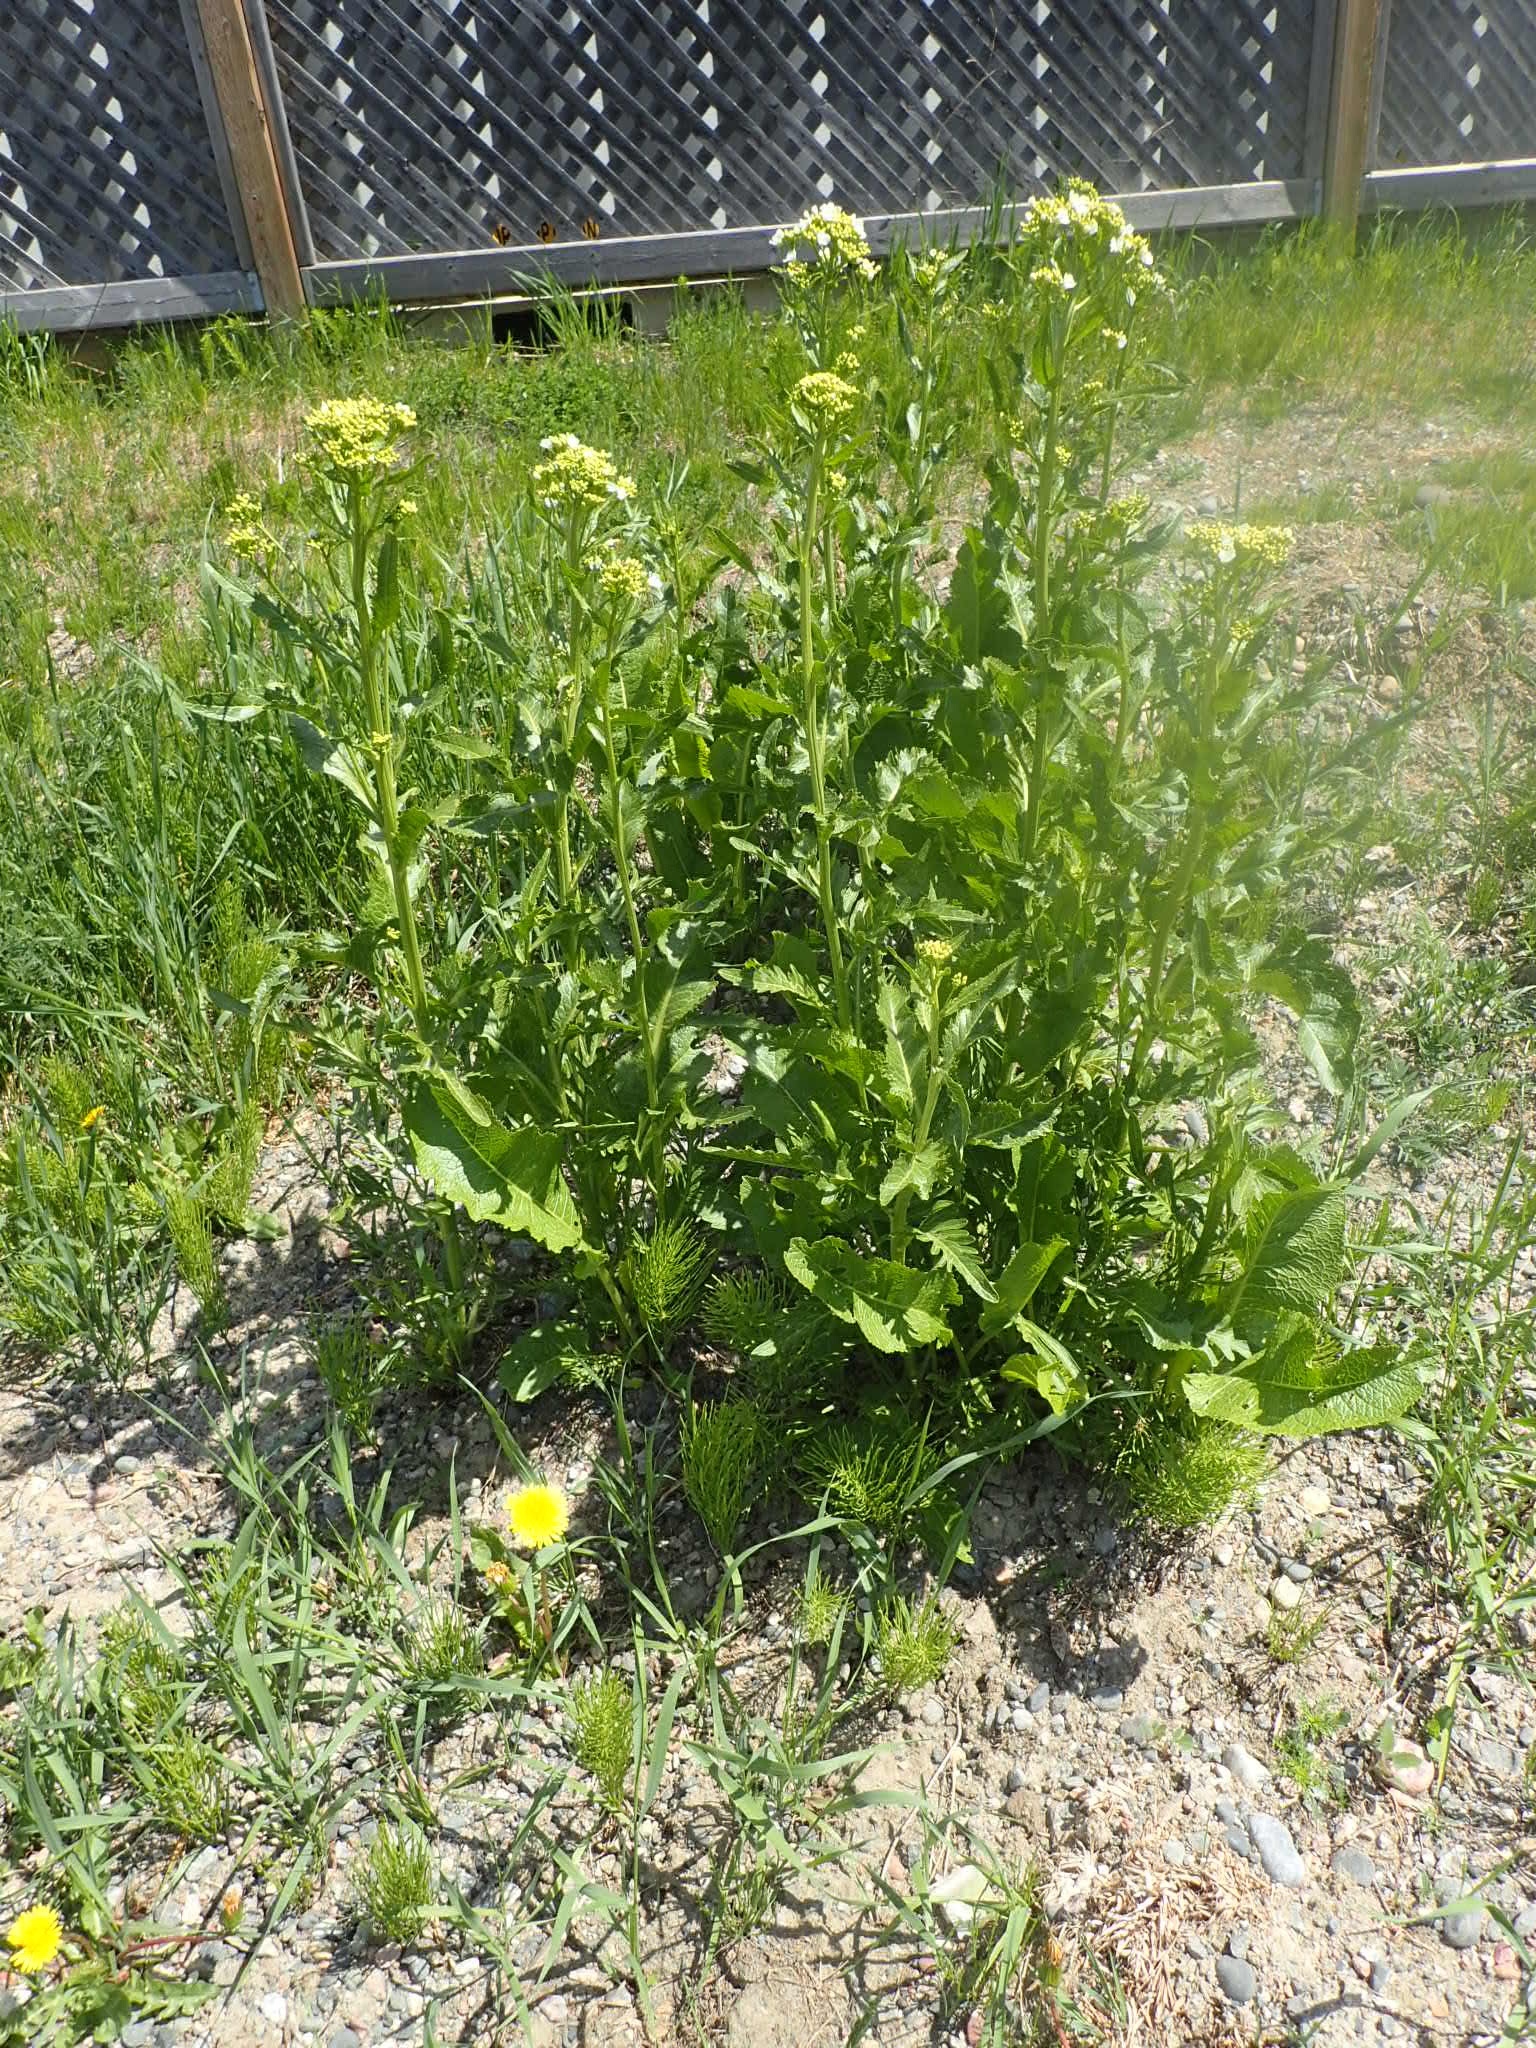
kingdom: Plantae
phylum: Tracheophyta
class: Magnoliopsida
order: Brassicales
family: Brassicaceae
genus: Armoracia
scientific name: Armoracia rusticana
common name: Horseradish
